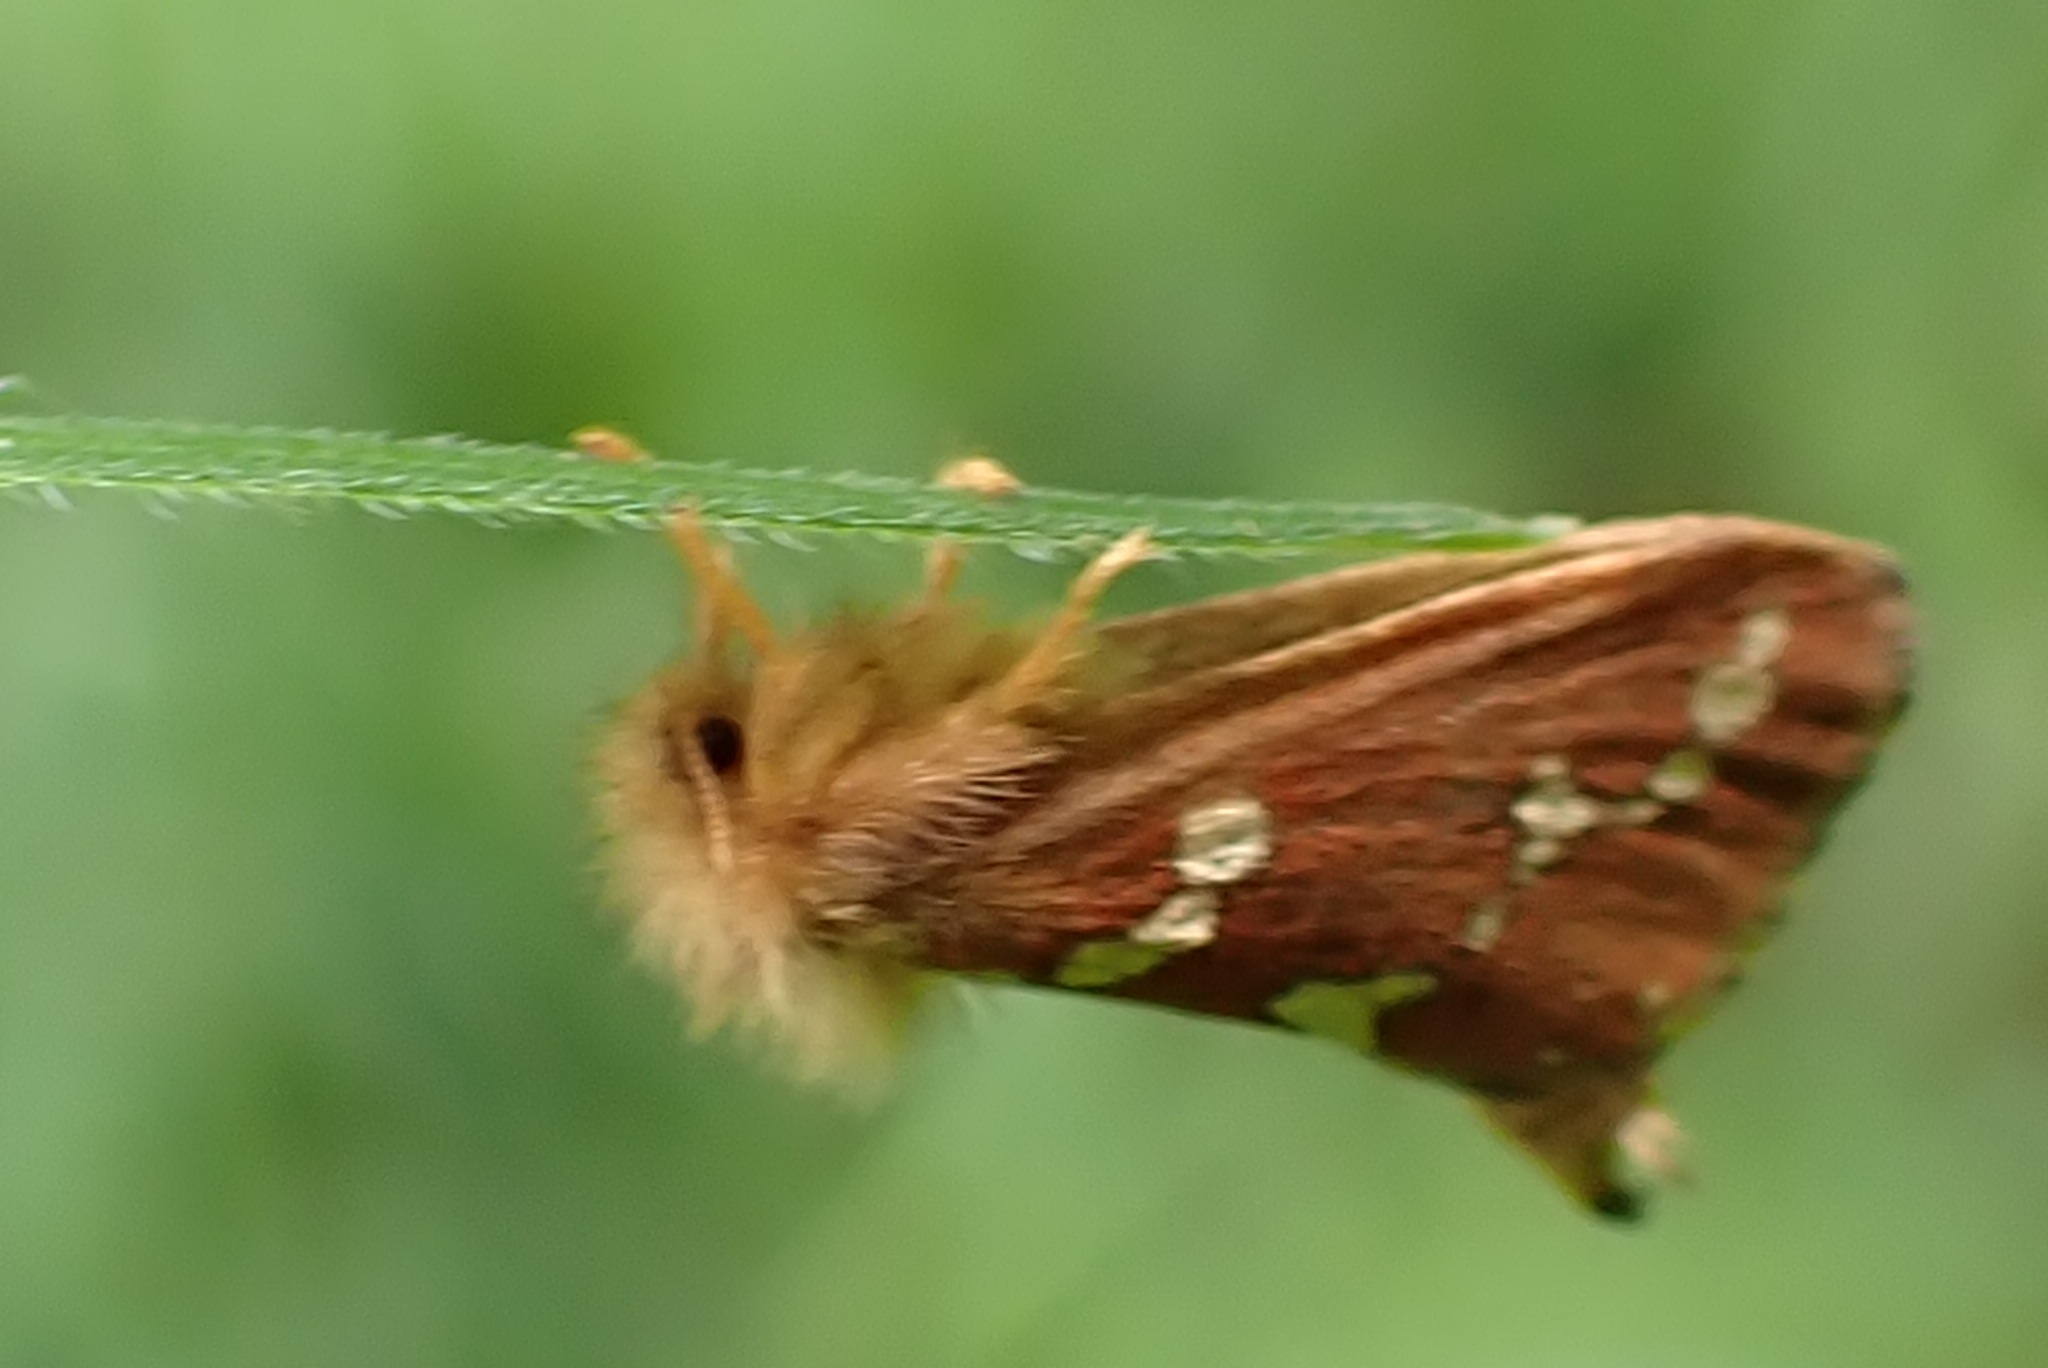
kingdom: Animalia
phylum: Arthropoda
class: Insecta
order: Lepidoptera
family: Hepialidae
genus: Phymatopus
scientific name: Phymatopus hecta
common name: Gold swift
